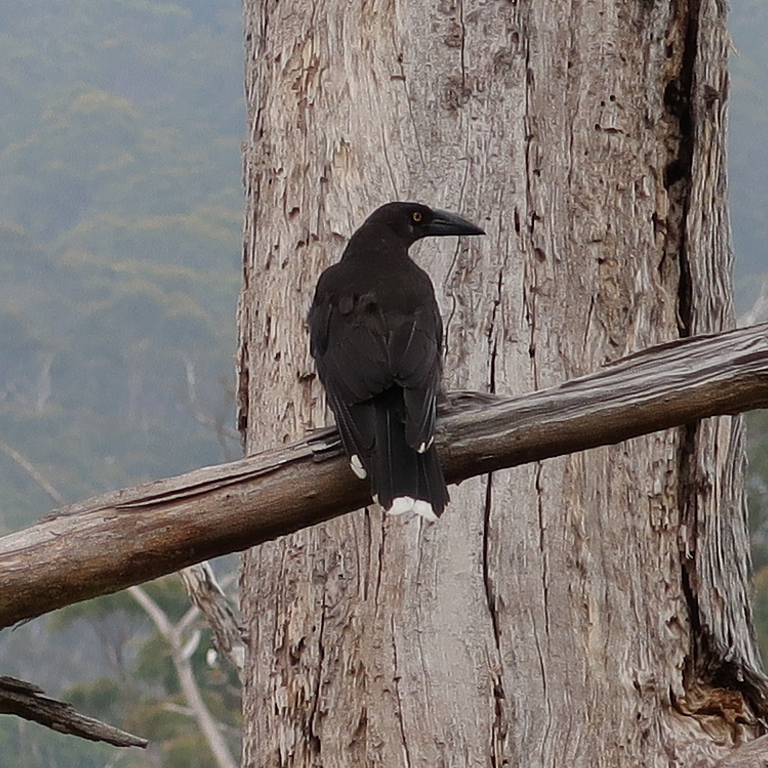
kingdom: Animalia
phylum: Chordata
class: Aves
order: Passeriformes
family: Cracticidae
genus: Strepera
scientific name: Strepera fuliginosa
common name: Black currawong
